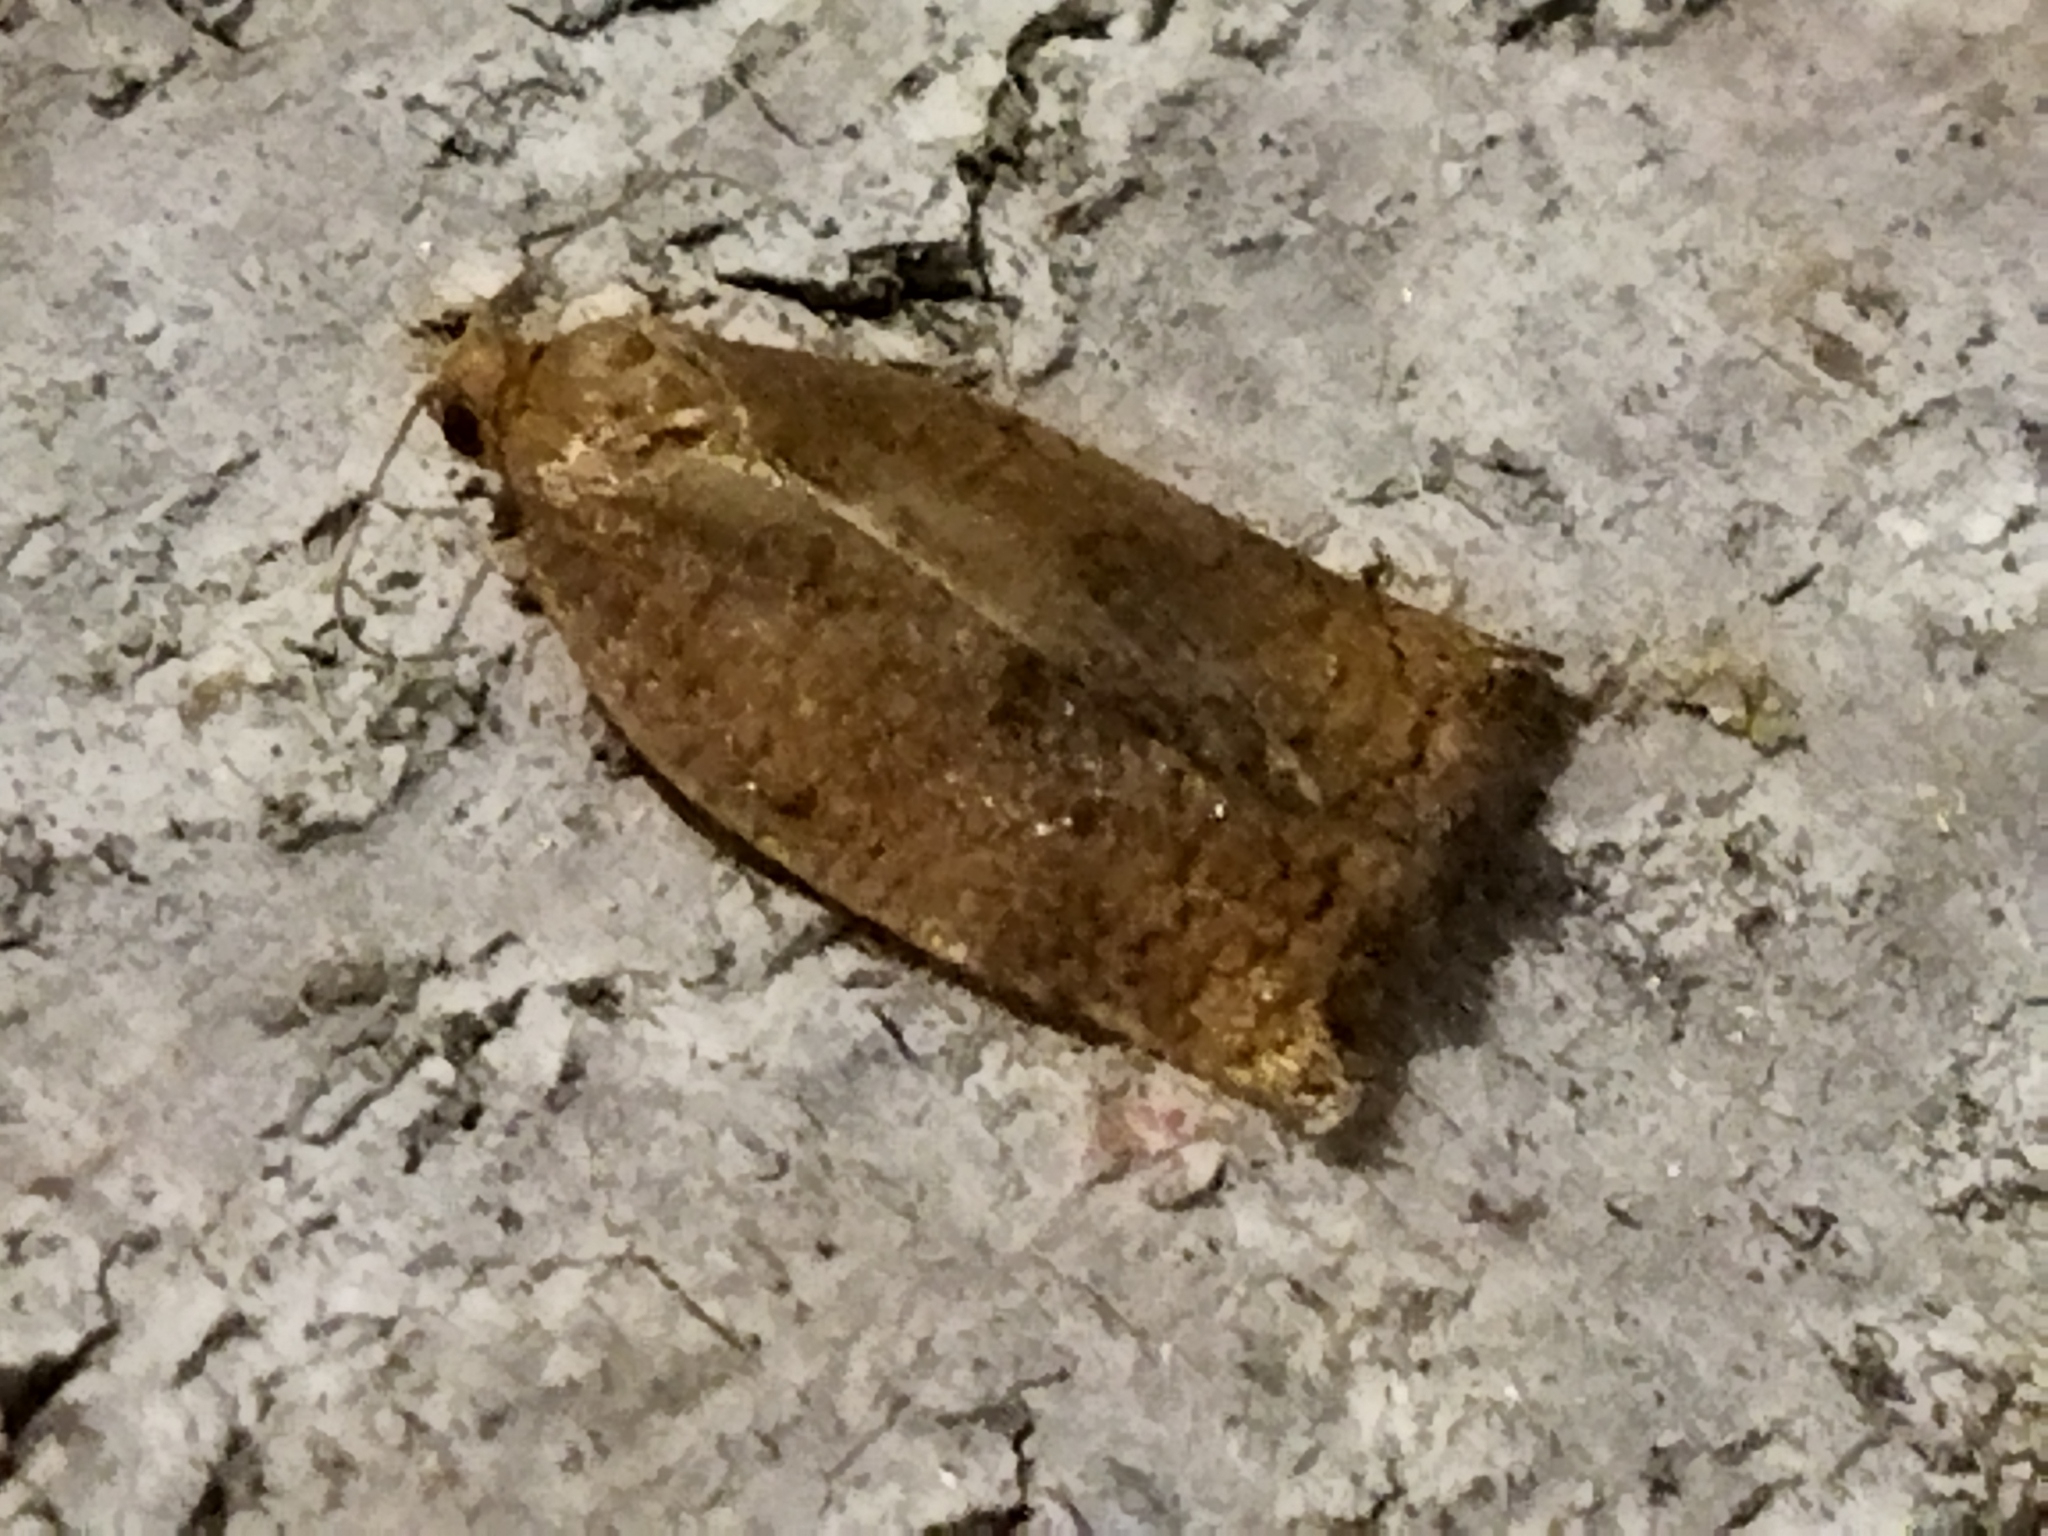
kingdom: Animalia
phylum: Arthropoda
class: Insecta
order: Lepidoptera
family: Tortricidae
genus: Archips
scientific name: Archips rosana
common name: Rose tortrix
